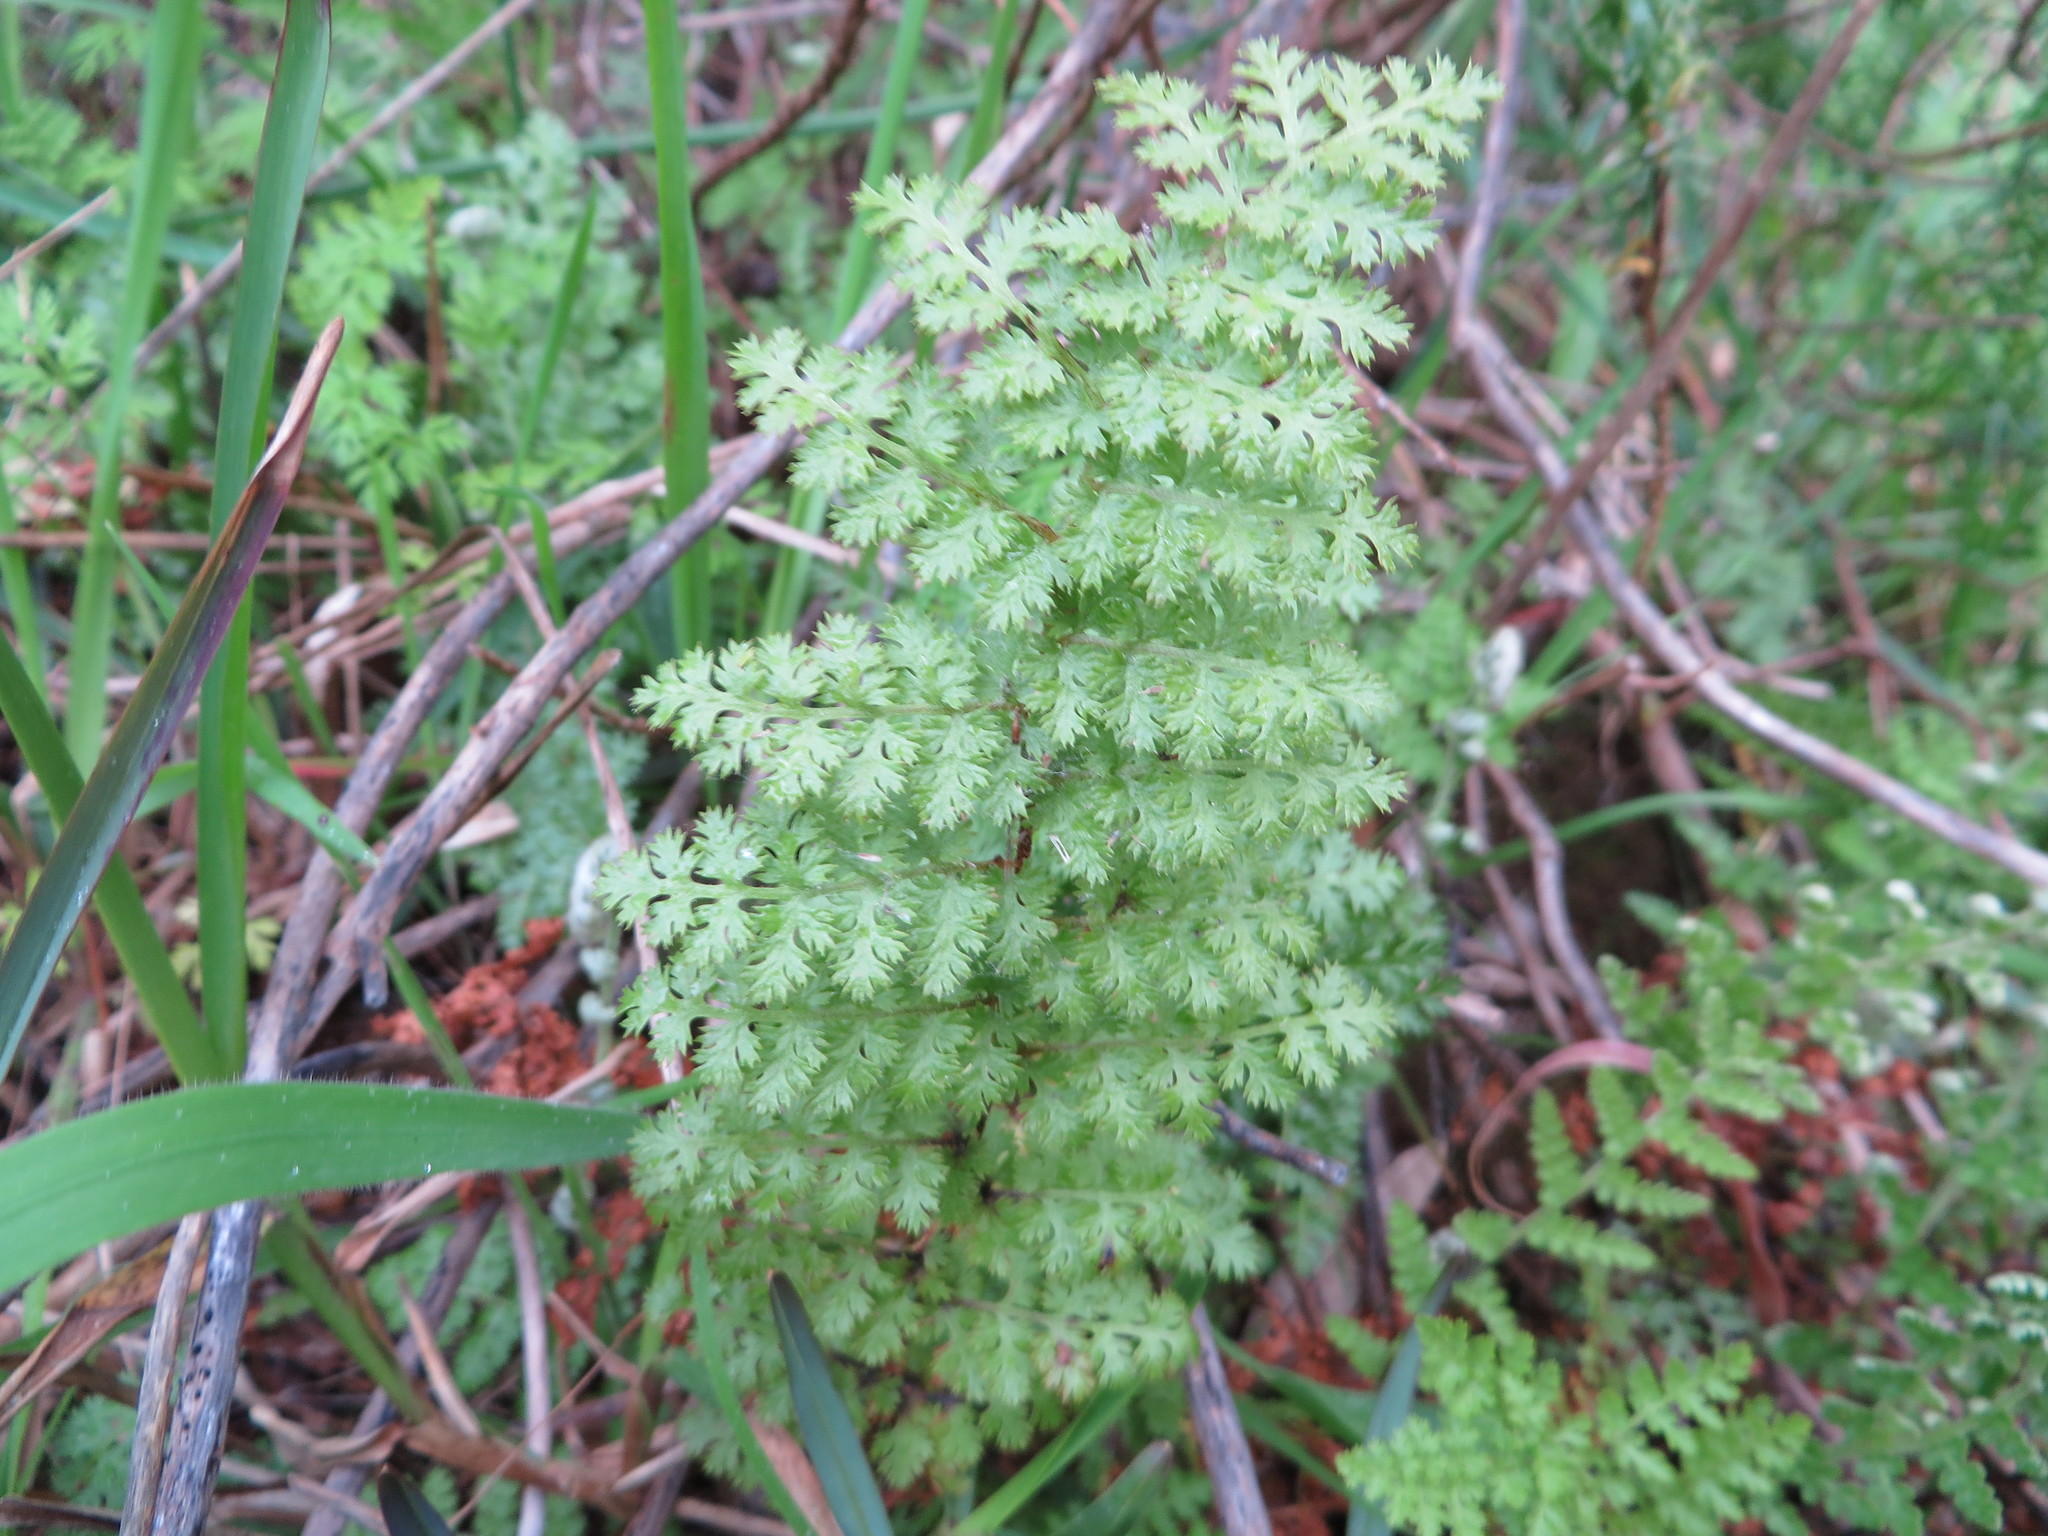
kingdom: Plantae
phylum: Tracheophyta
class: Polypodiopsida
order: Schizaeales
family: Anemiaceae
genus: Anemia
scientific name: Anemia caffrorum
